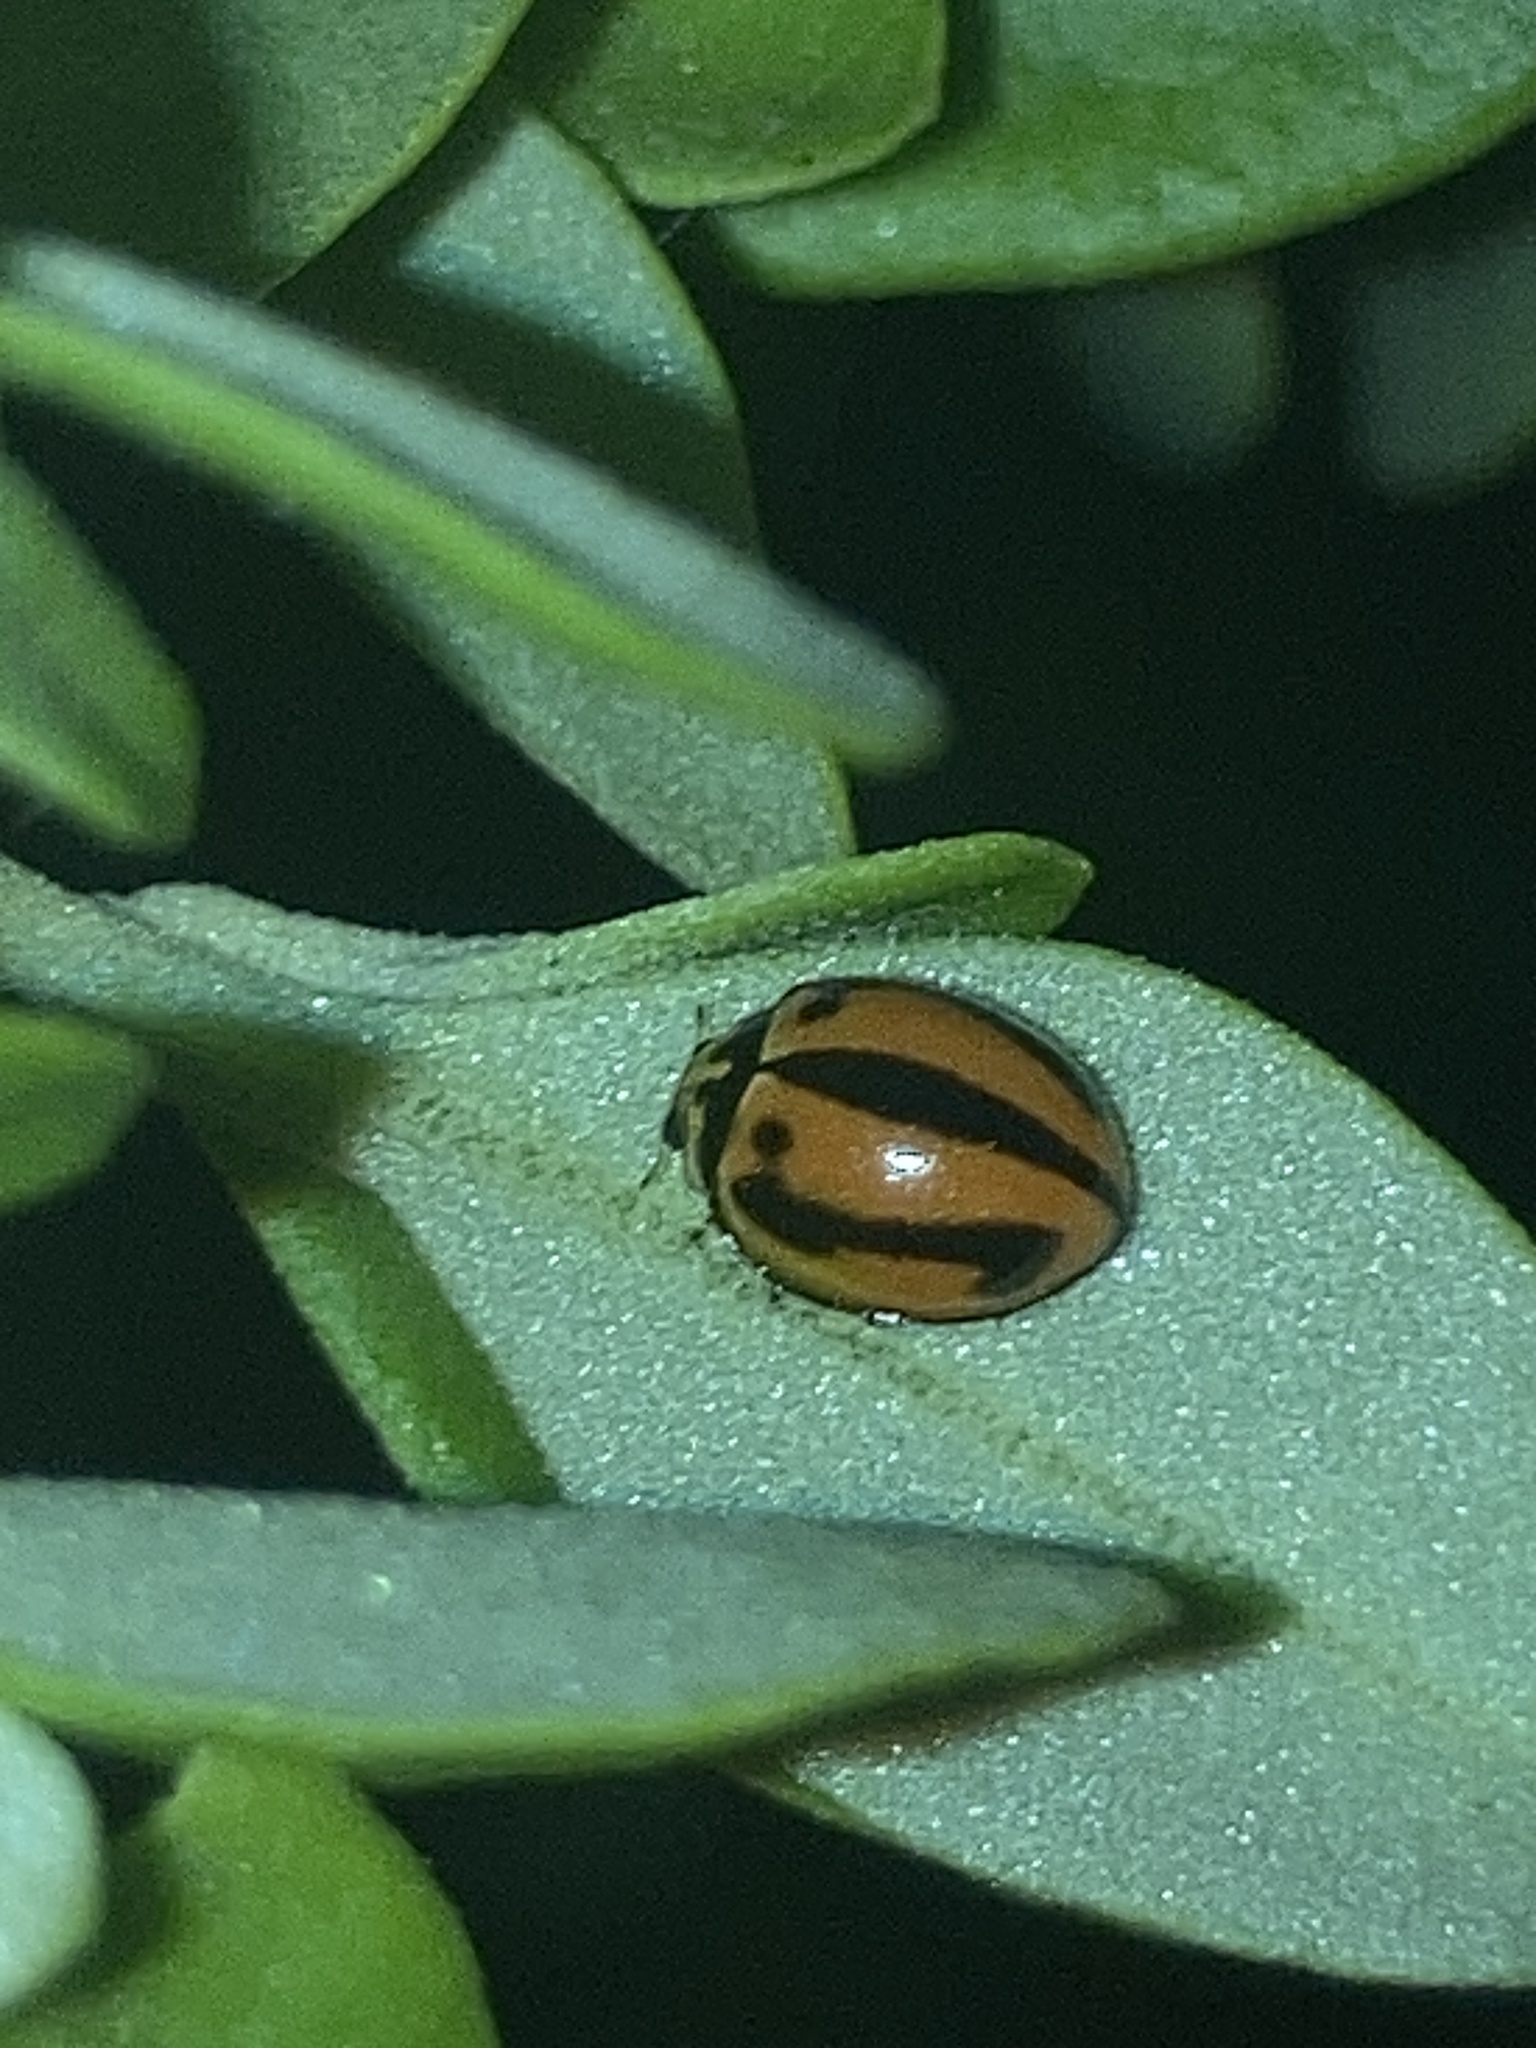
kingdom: Animalia
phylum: Arthropoda
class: Insecta
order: Coleoptera
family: Coccinellidae
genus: Micraspis
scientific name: Micraspis frenata
